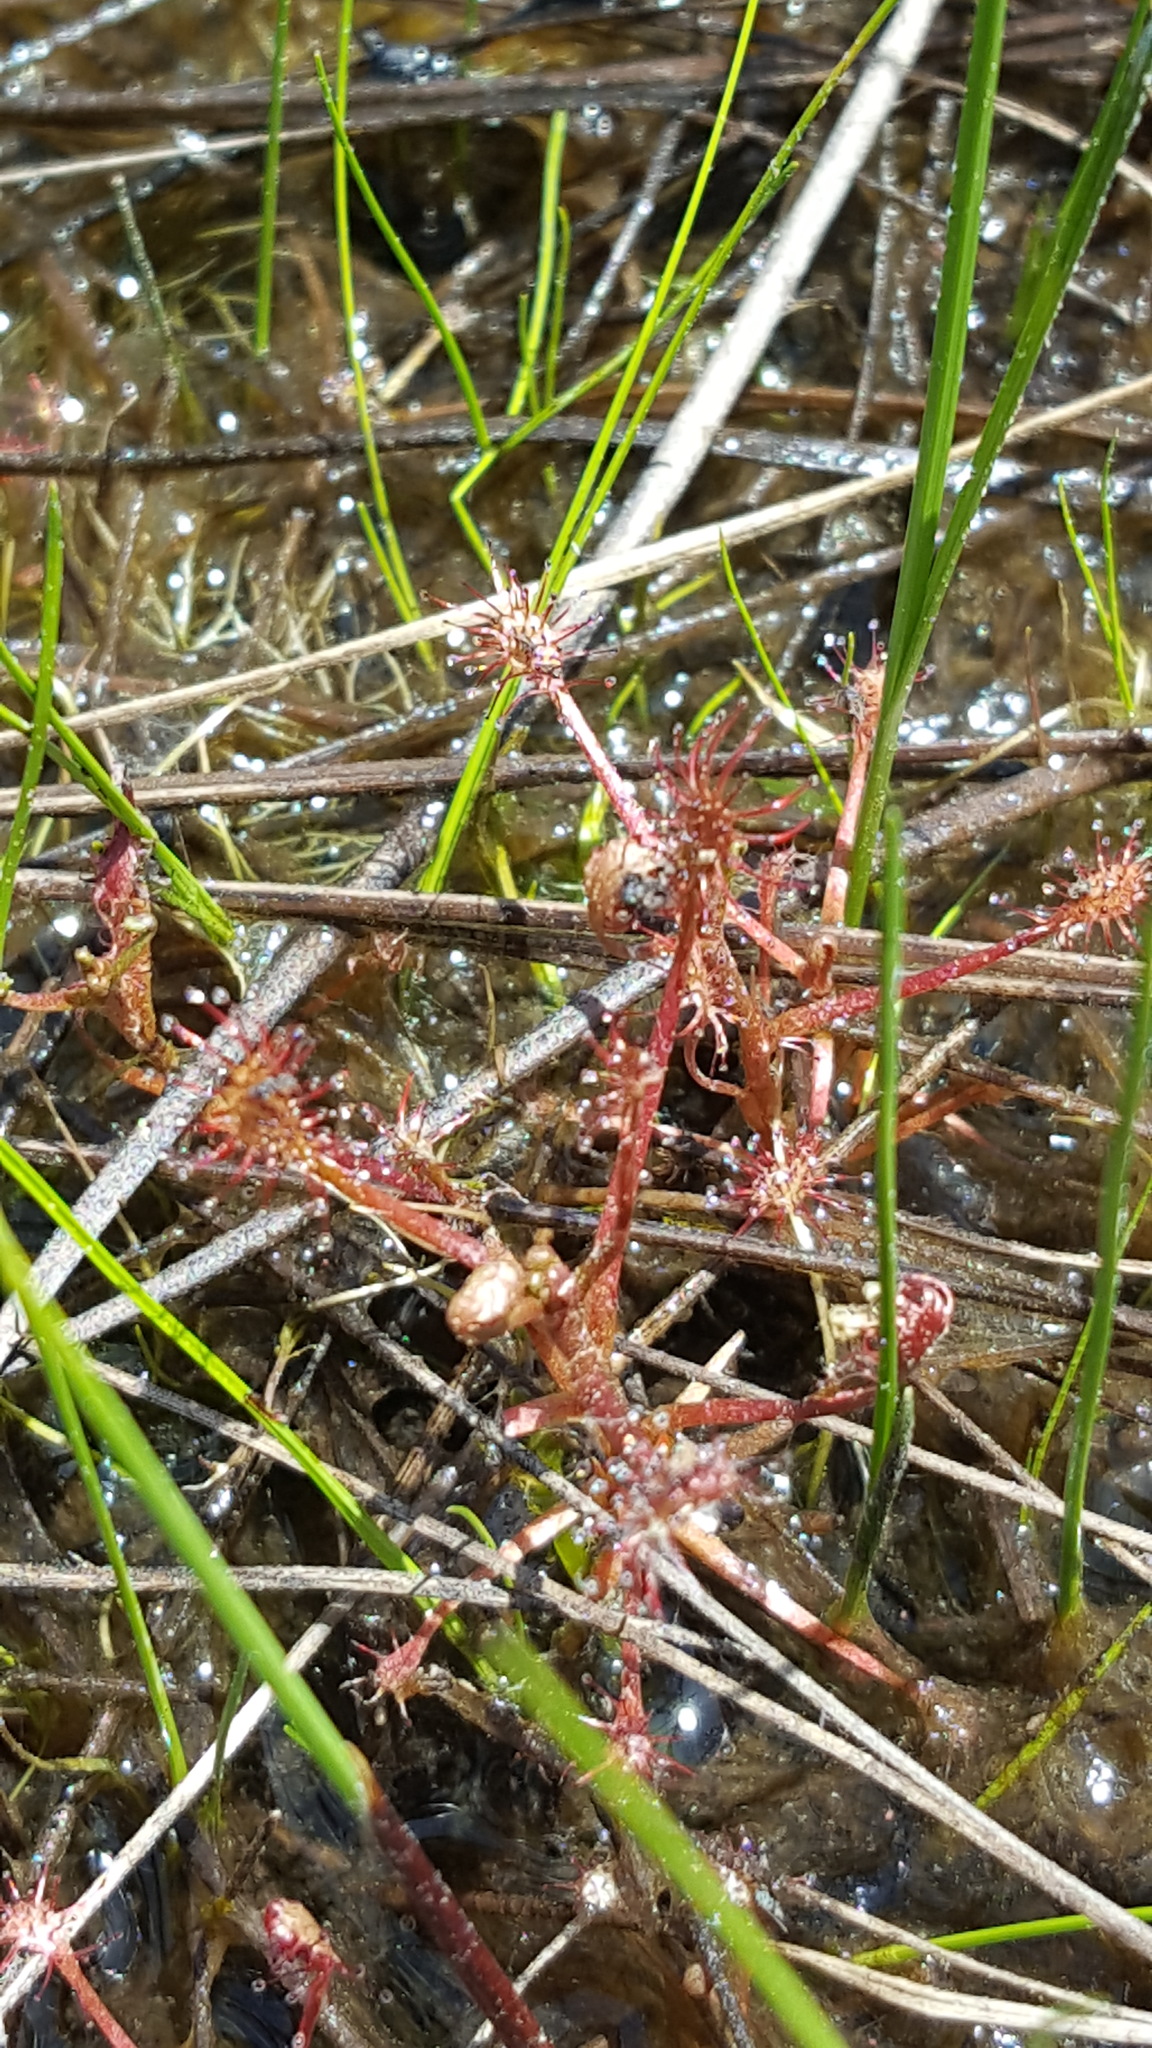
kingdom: Plantae
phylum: Tracheophyta
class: Magnoliopsida
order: Caryophyllales
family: Droseraceae
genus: Drosera
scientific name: Drosera intermedia
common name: Oblong-leaved sundew
